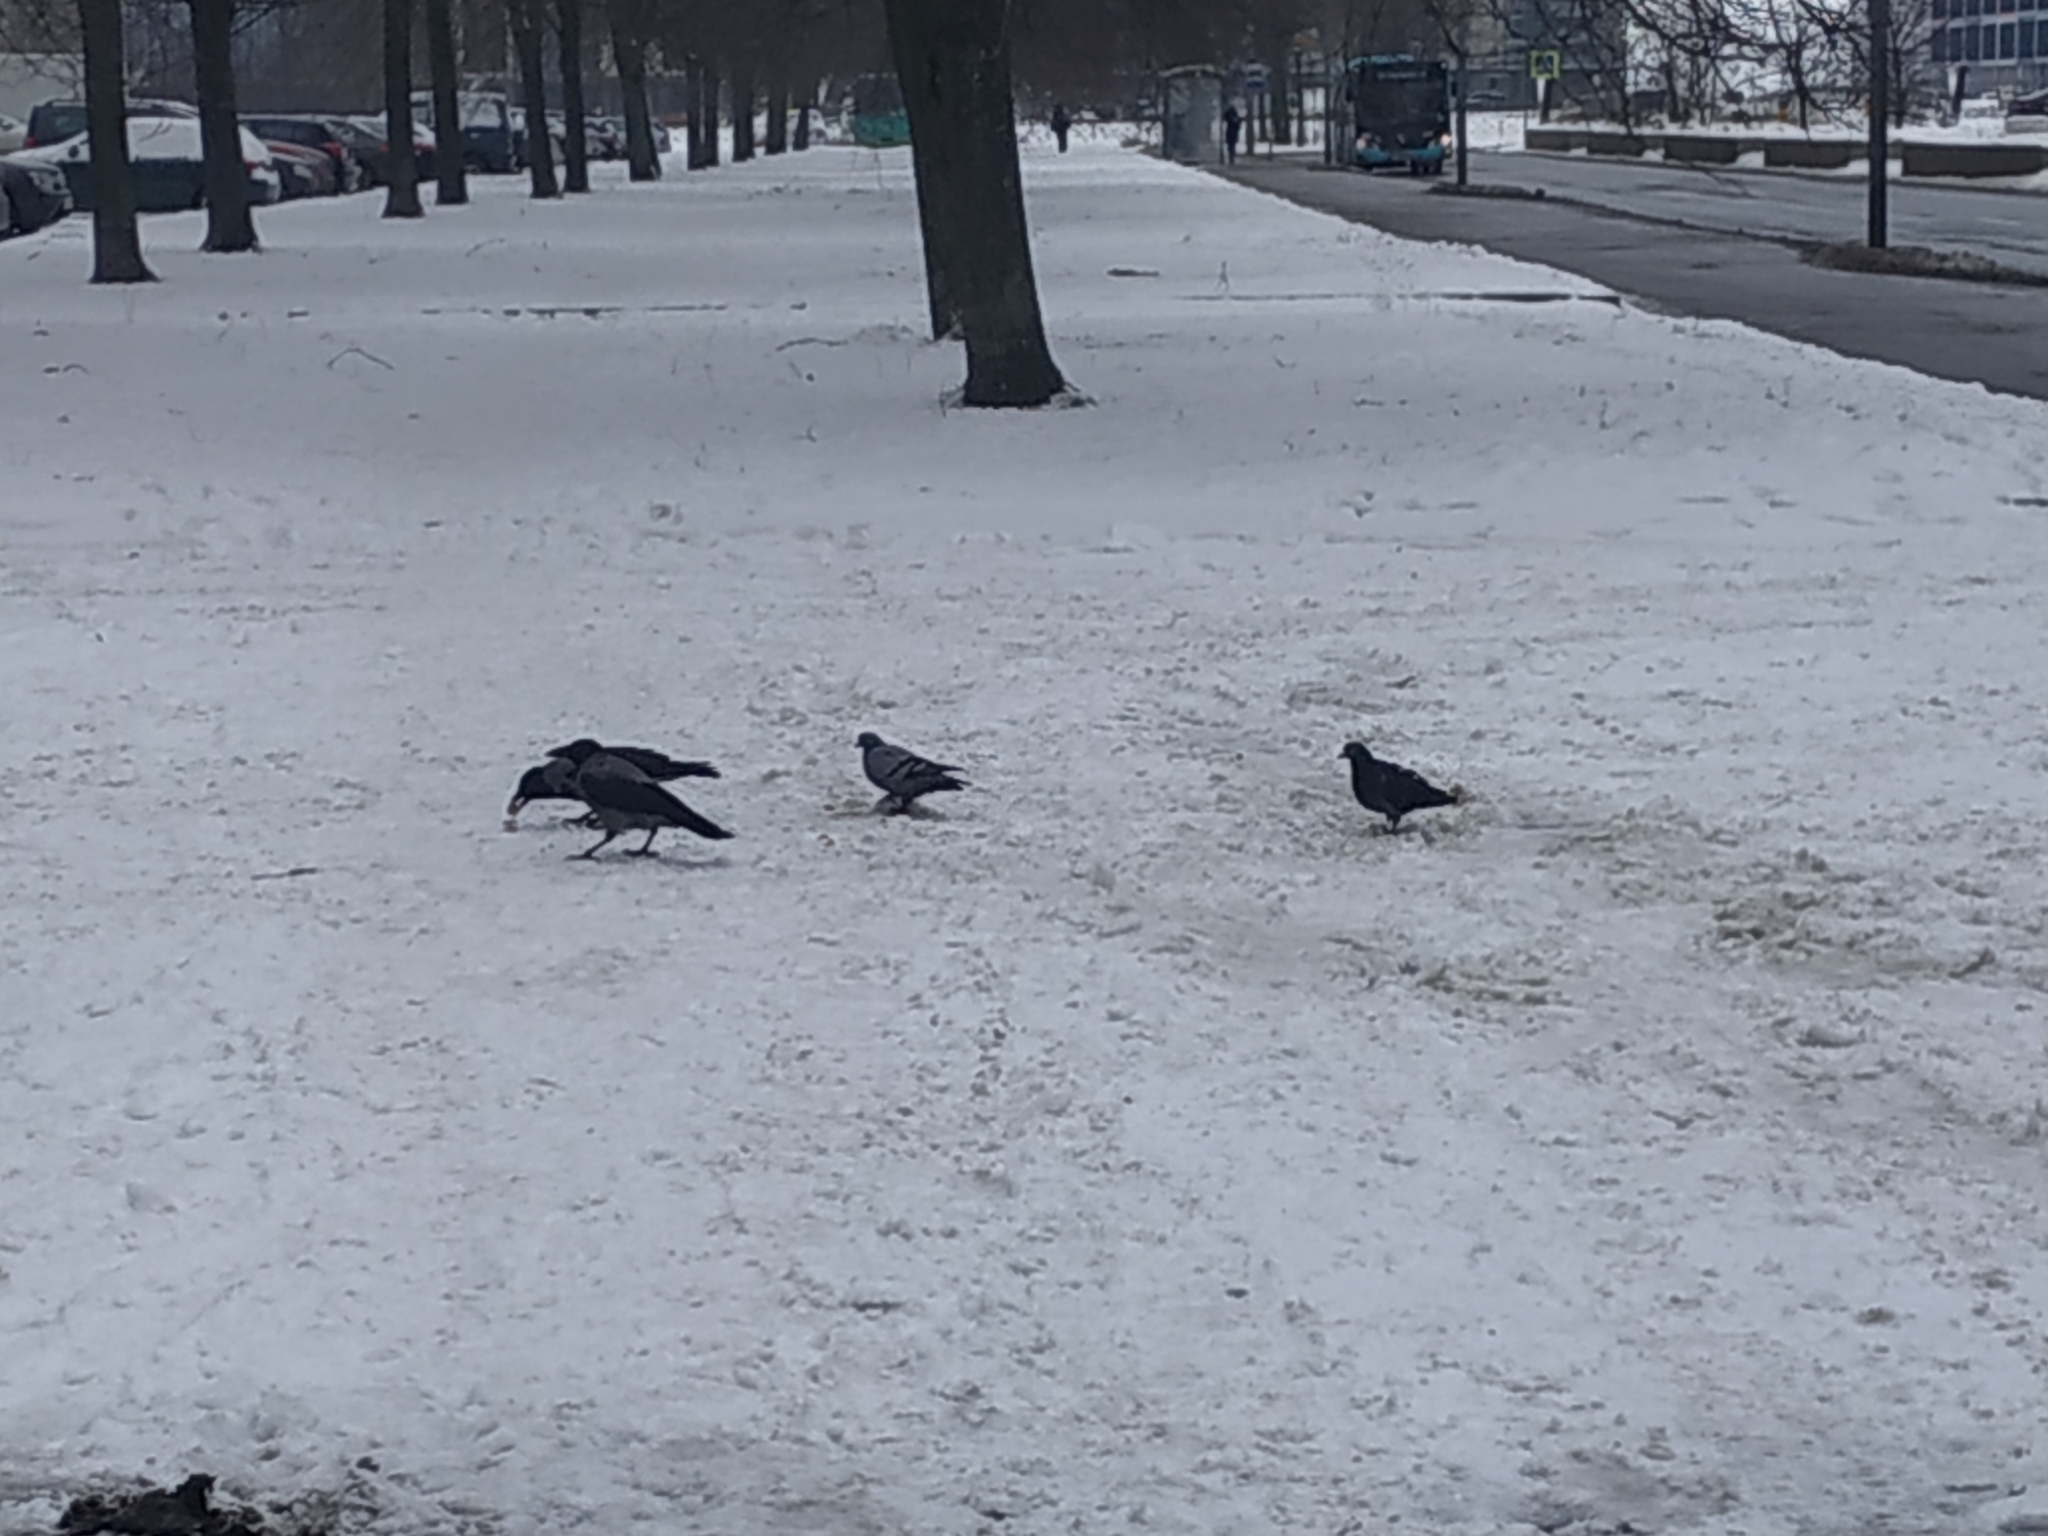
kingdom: Animalia
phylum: Chordata
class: Aves
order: Passeriformes
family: Corvidae
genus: Corvus
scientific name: Corvus cornix
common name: Hooded crow
